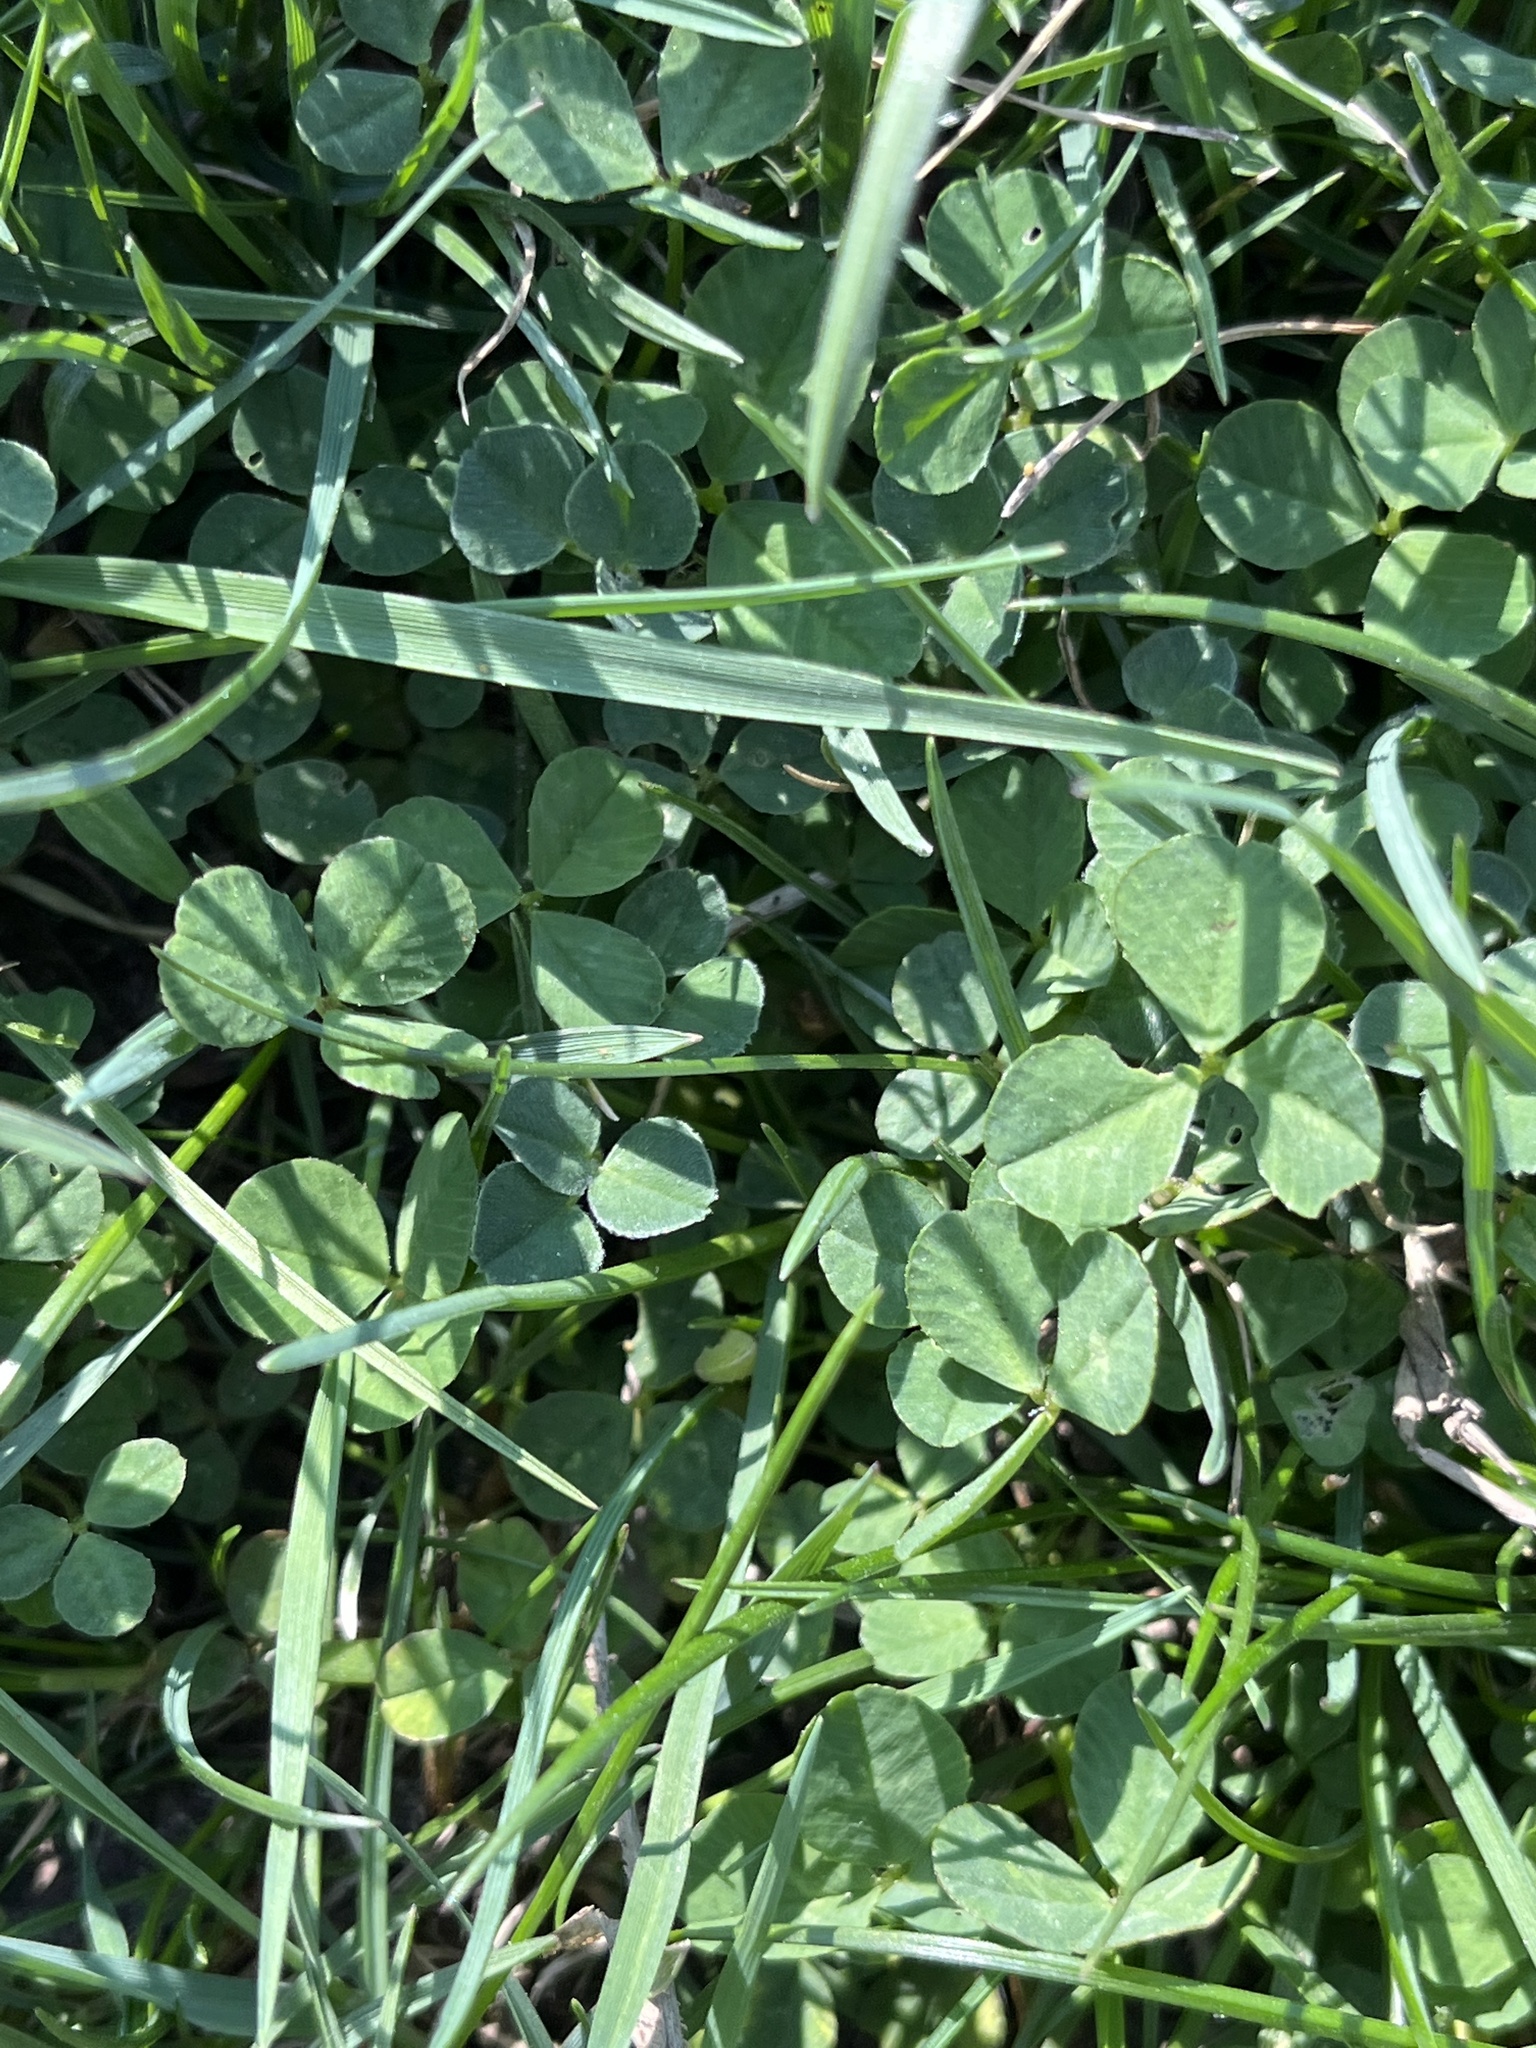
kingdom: Plantae
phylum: Tracheophyta
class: Magnoliopsida
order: Fabales
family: Fabaceae
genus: Trifolium
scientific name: Trifolium repens
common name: White clover
